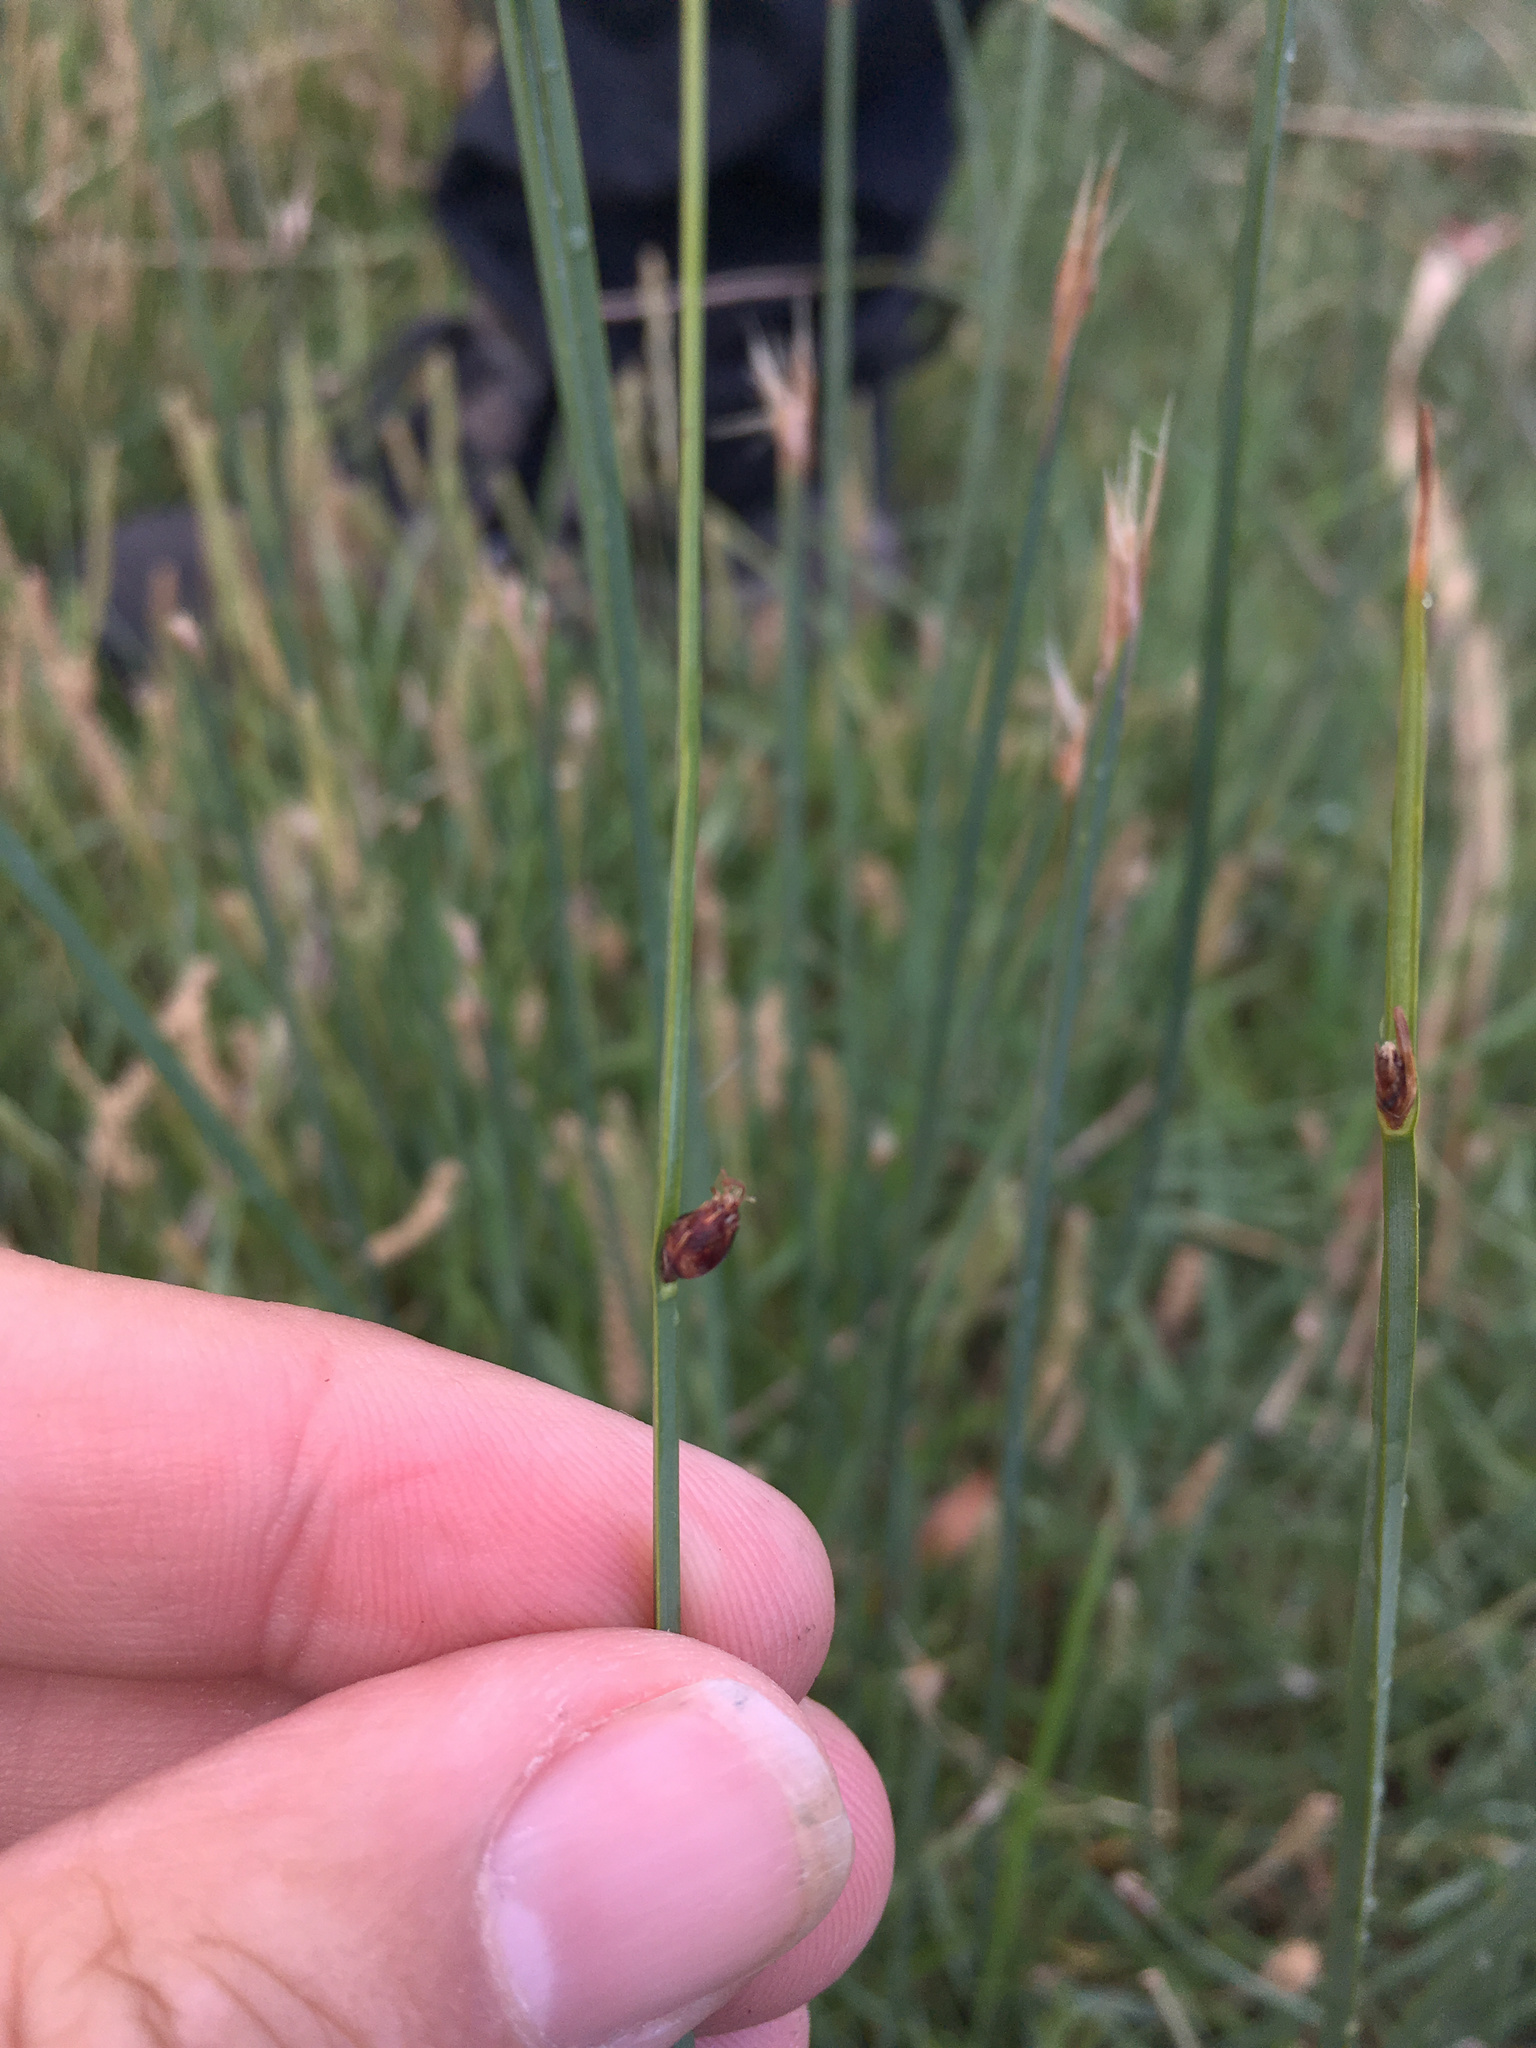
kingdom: Plantae
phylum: Tracheophyta
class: Liliopsida
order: Poales
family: Cyperaceae
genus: Schoenoplectus
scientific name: Schoenoplectus pungens
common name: Sharp club-rush
